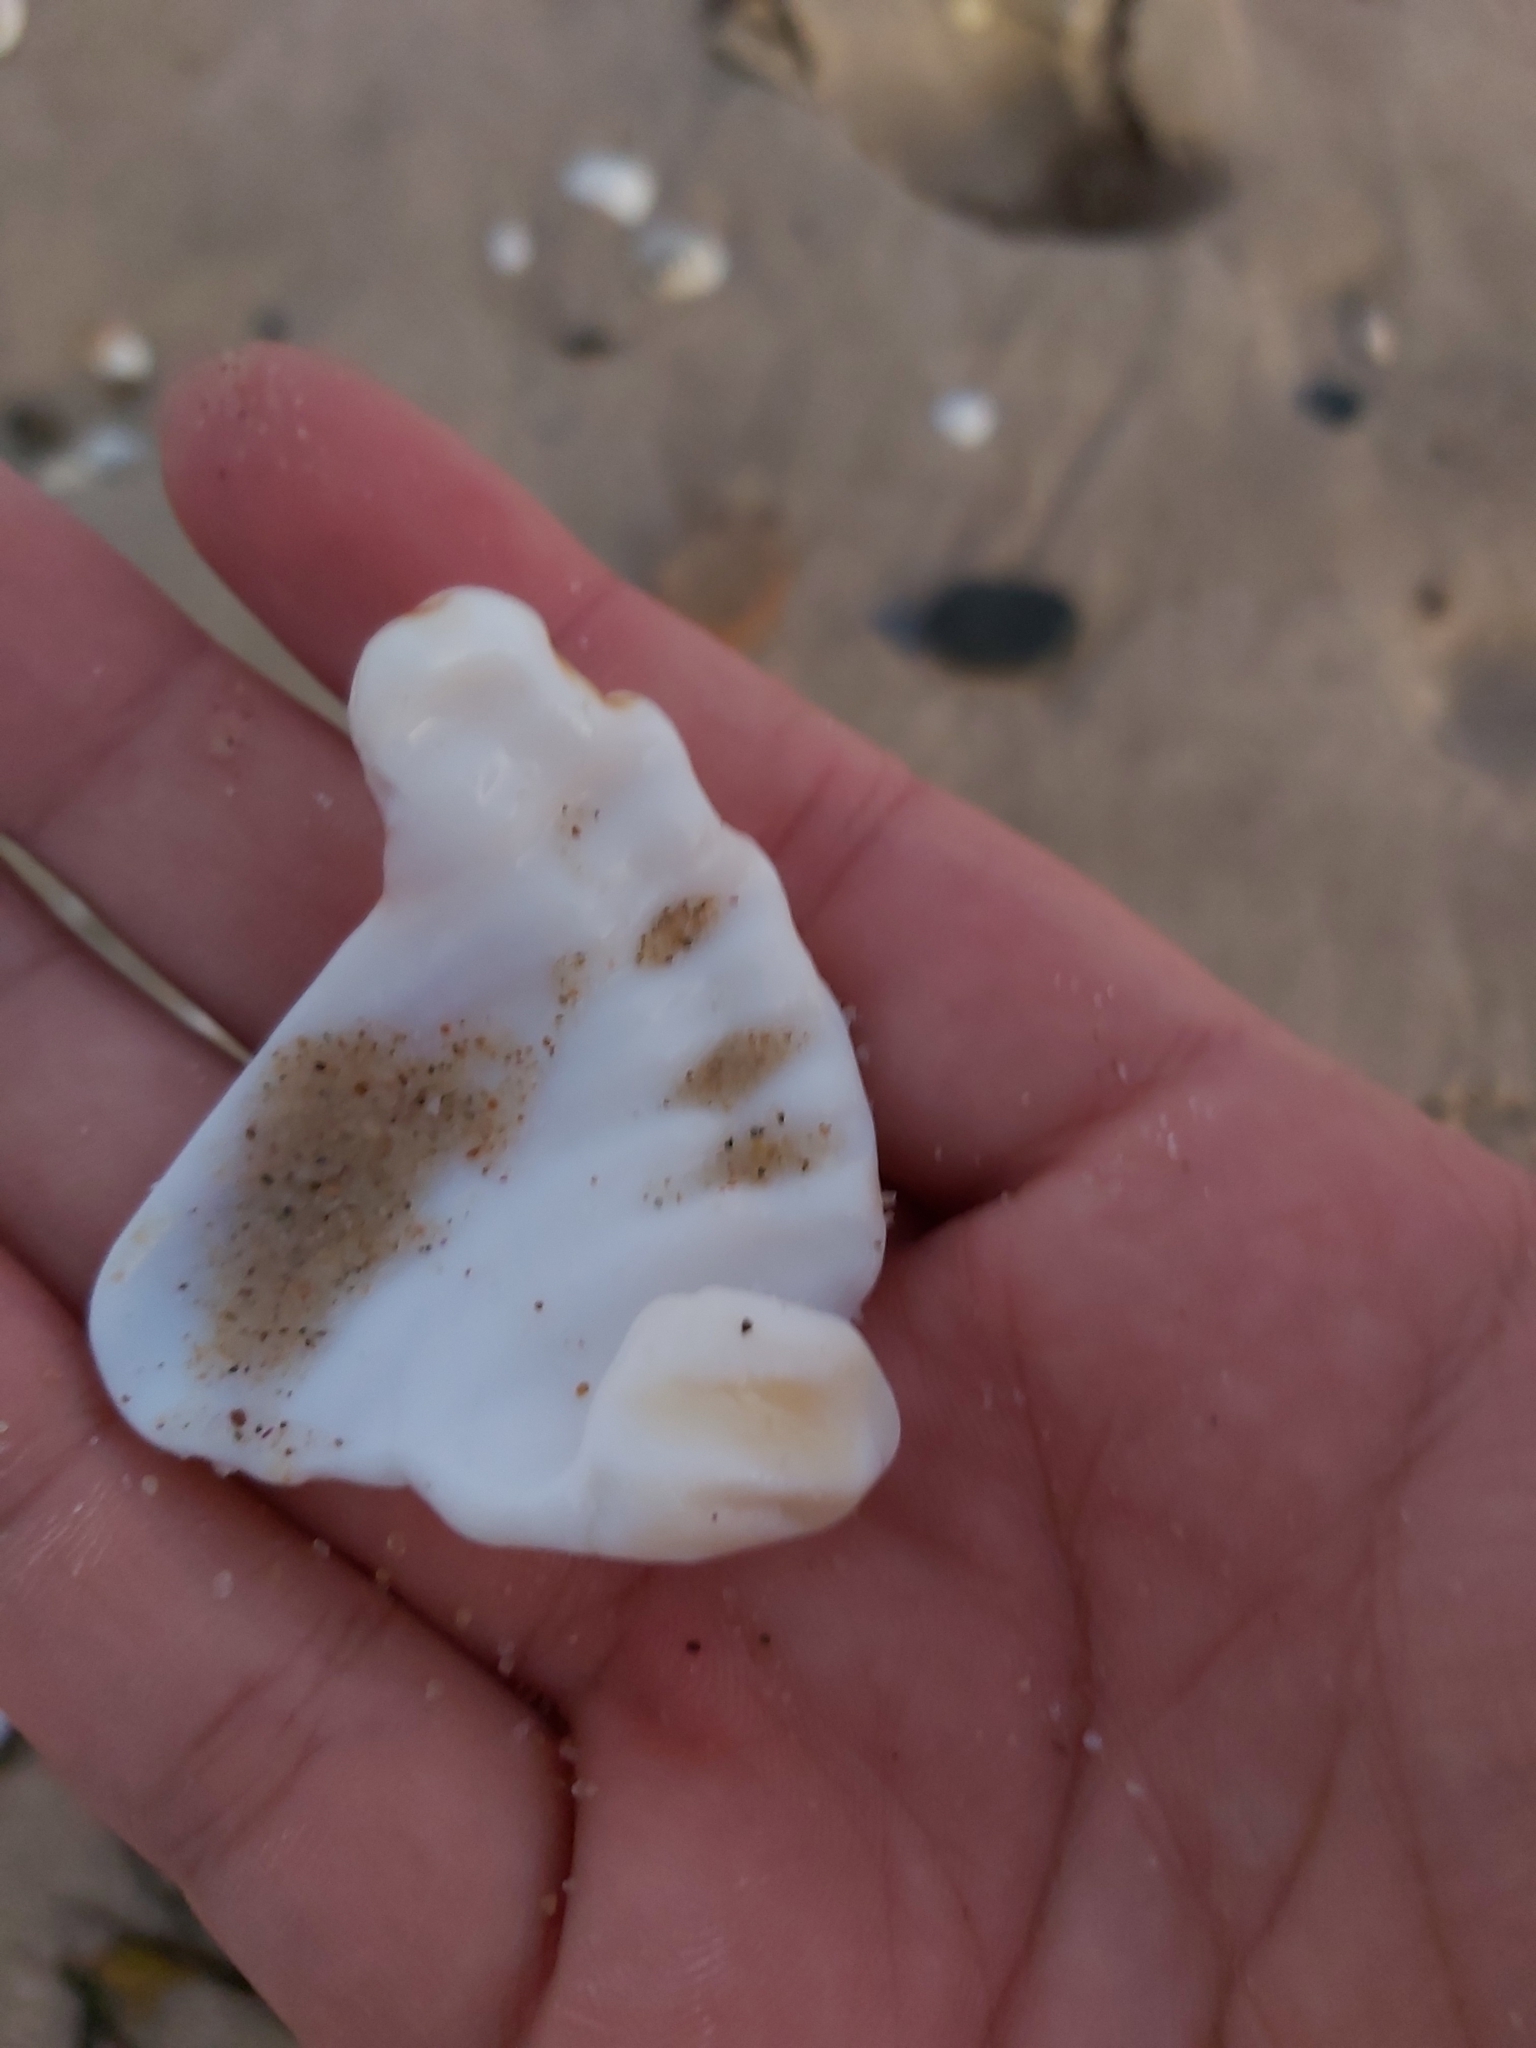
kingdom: Animalia
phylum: Mollusca
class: Gastropoda
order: Littorinimorpha
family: Cymatiidae
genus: Cabestana
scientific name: Cabestana spengleri
